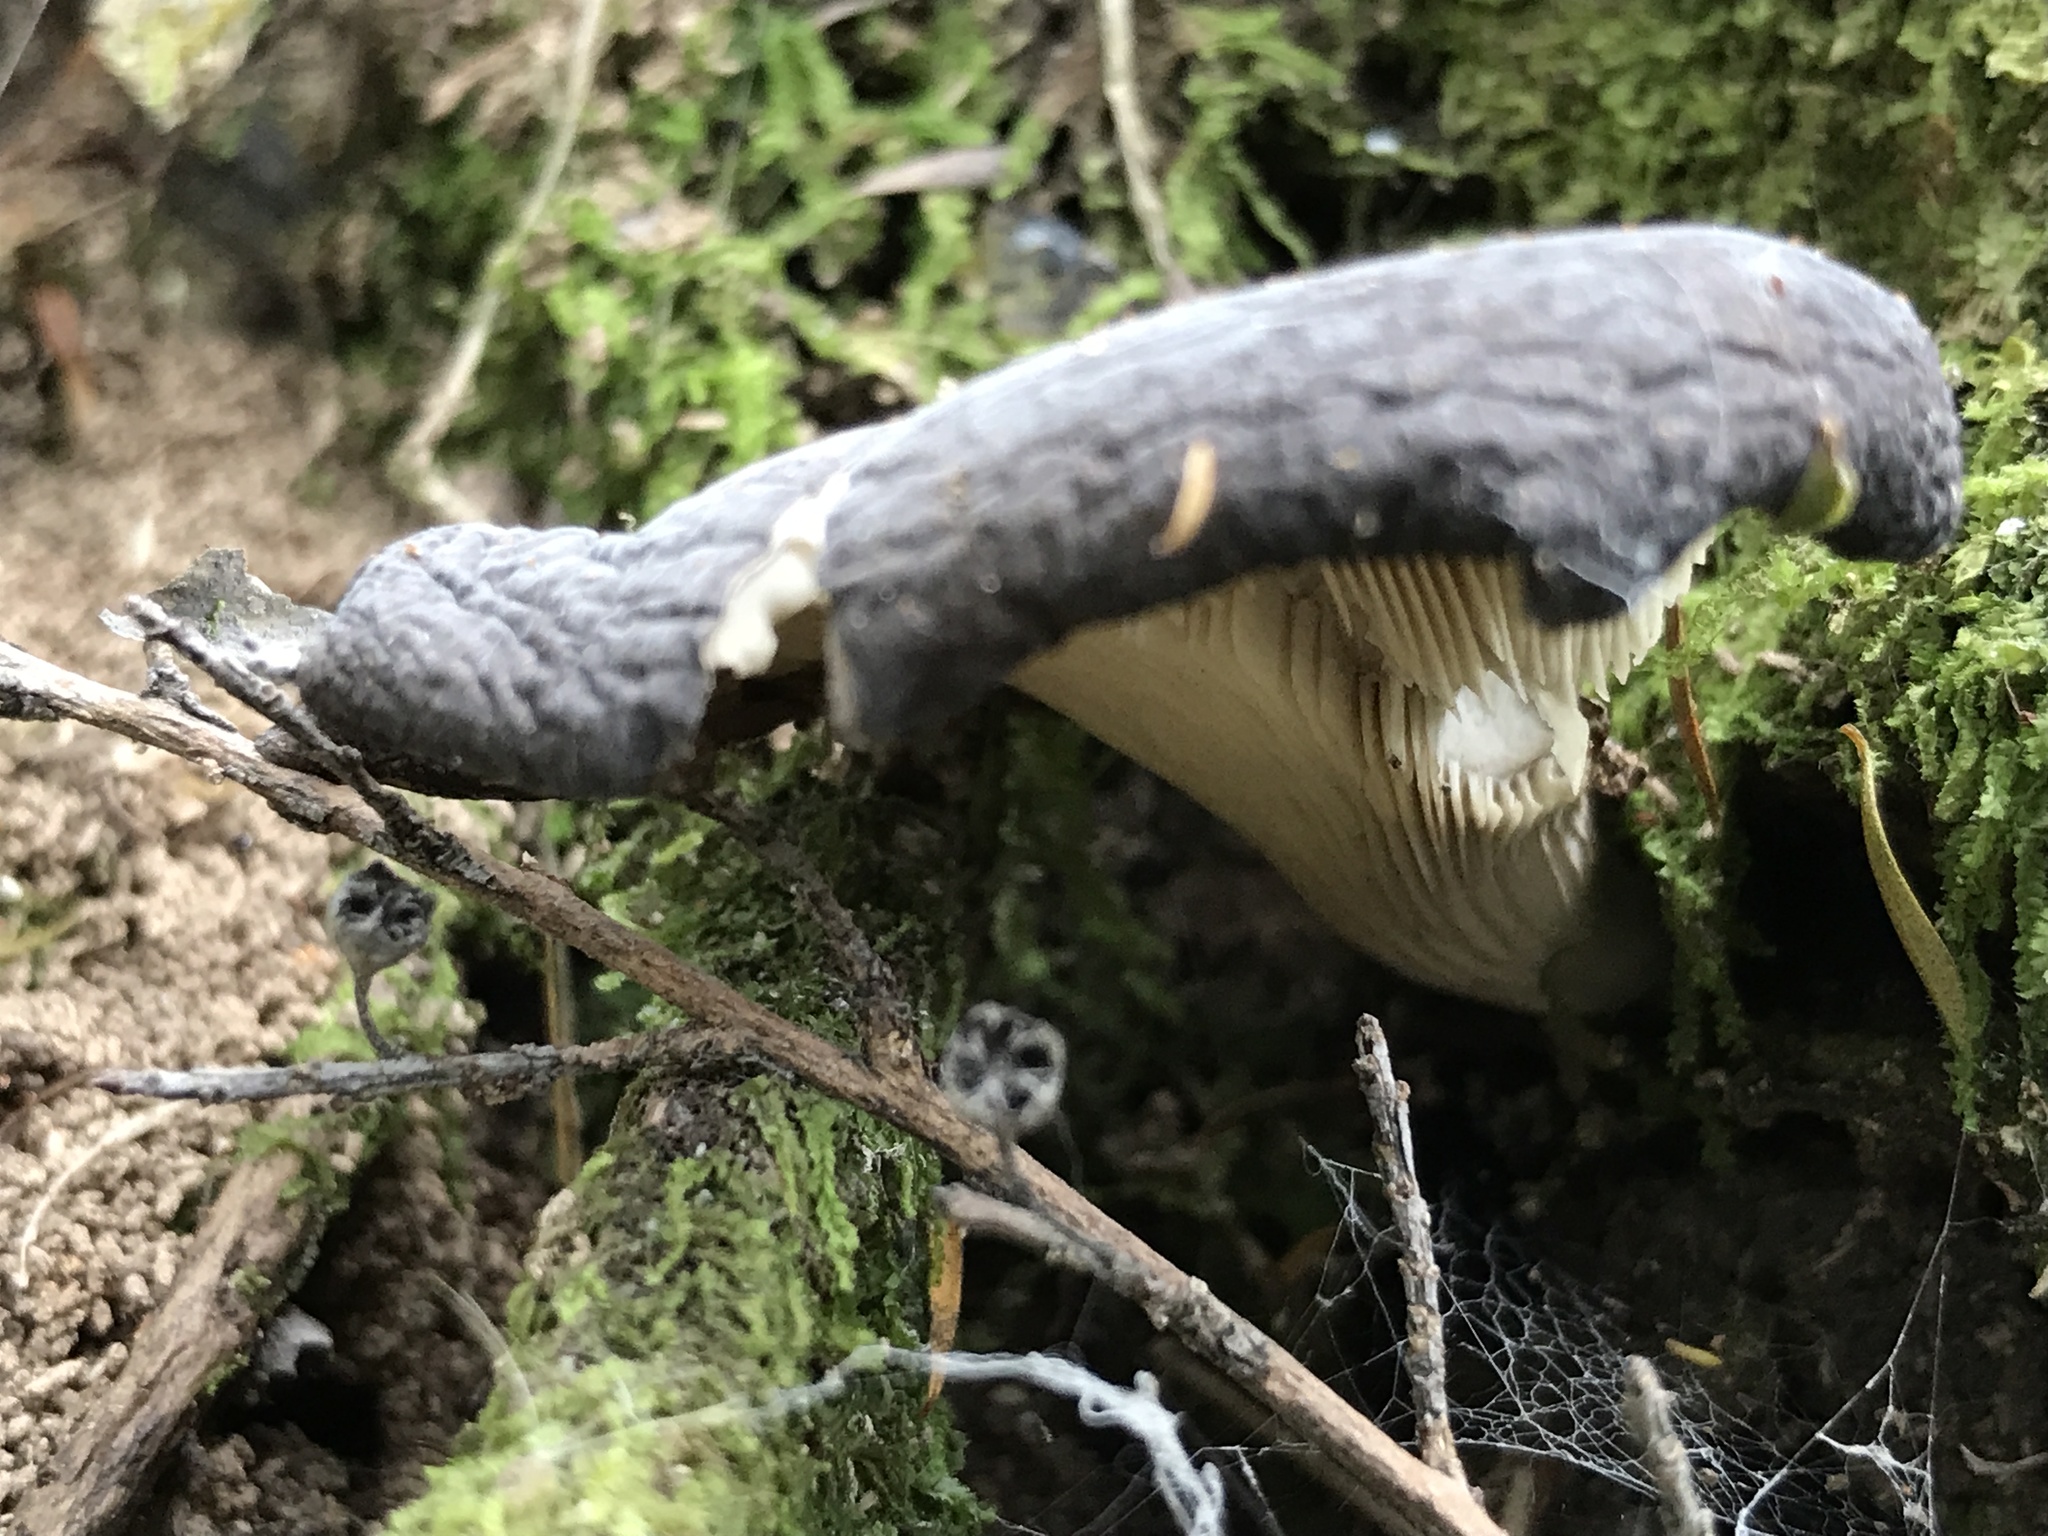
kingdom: Fungi
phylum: Basidiomycota
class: Agaricomycetes
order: Agaricales
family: Pleurotaceae
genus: Pleurotus
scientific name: Pleurotus purpureo-olivaceus
